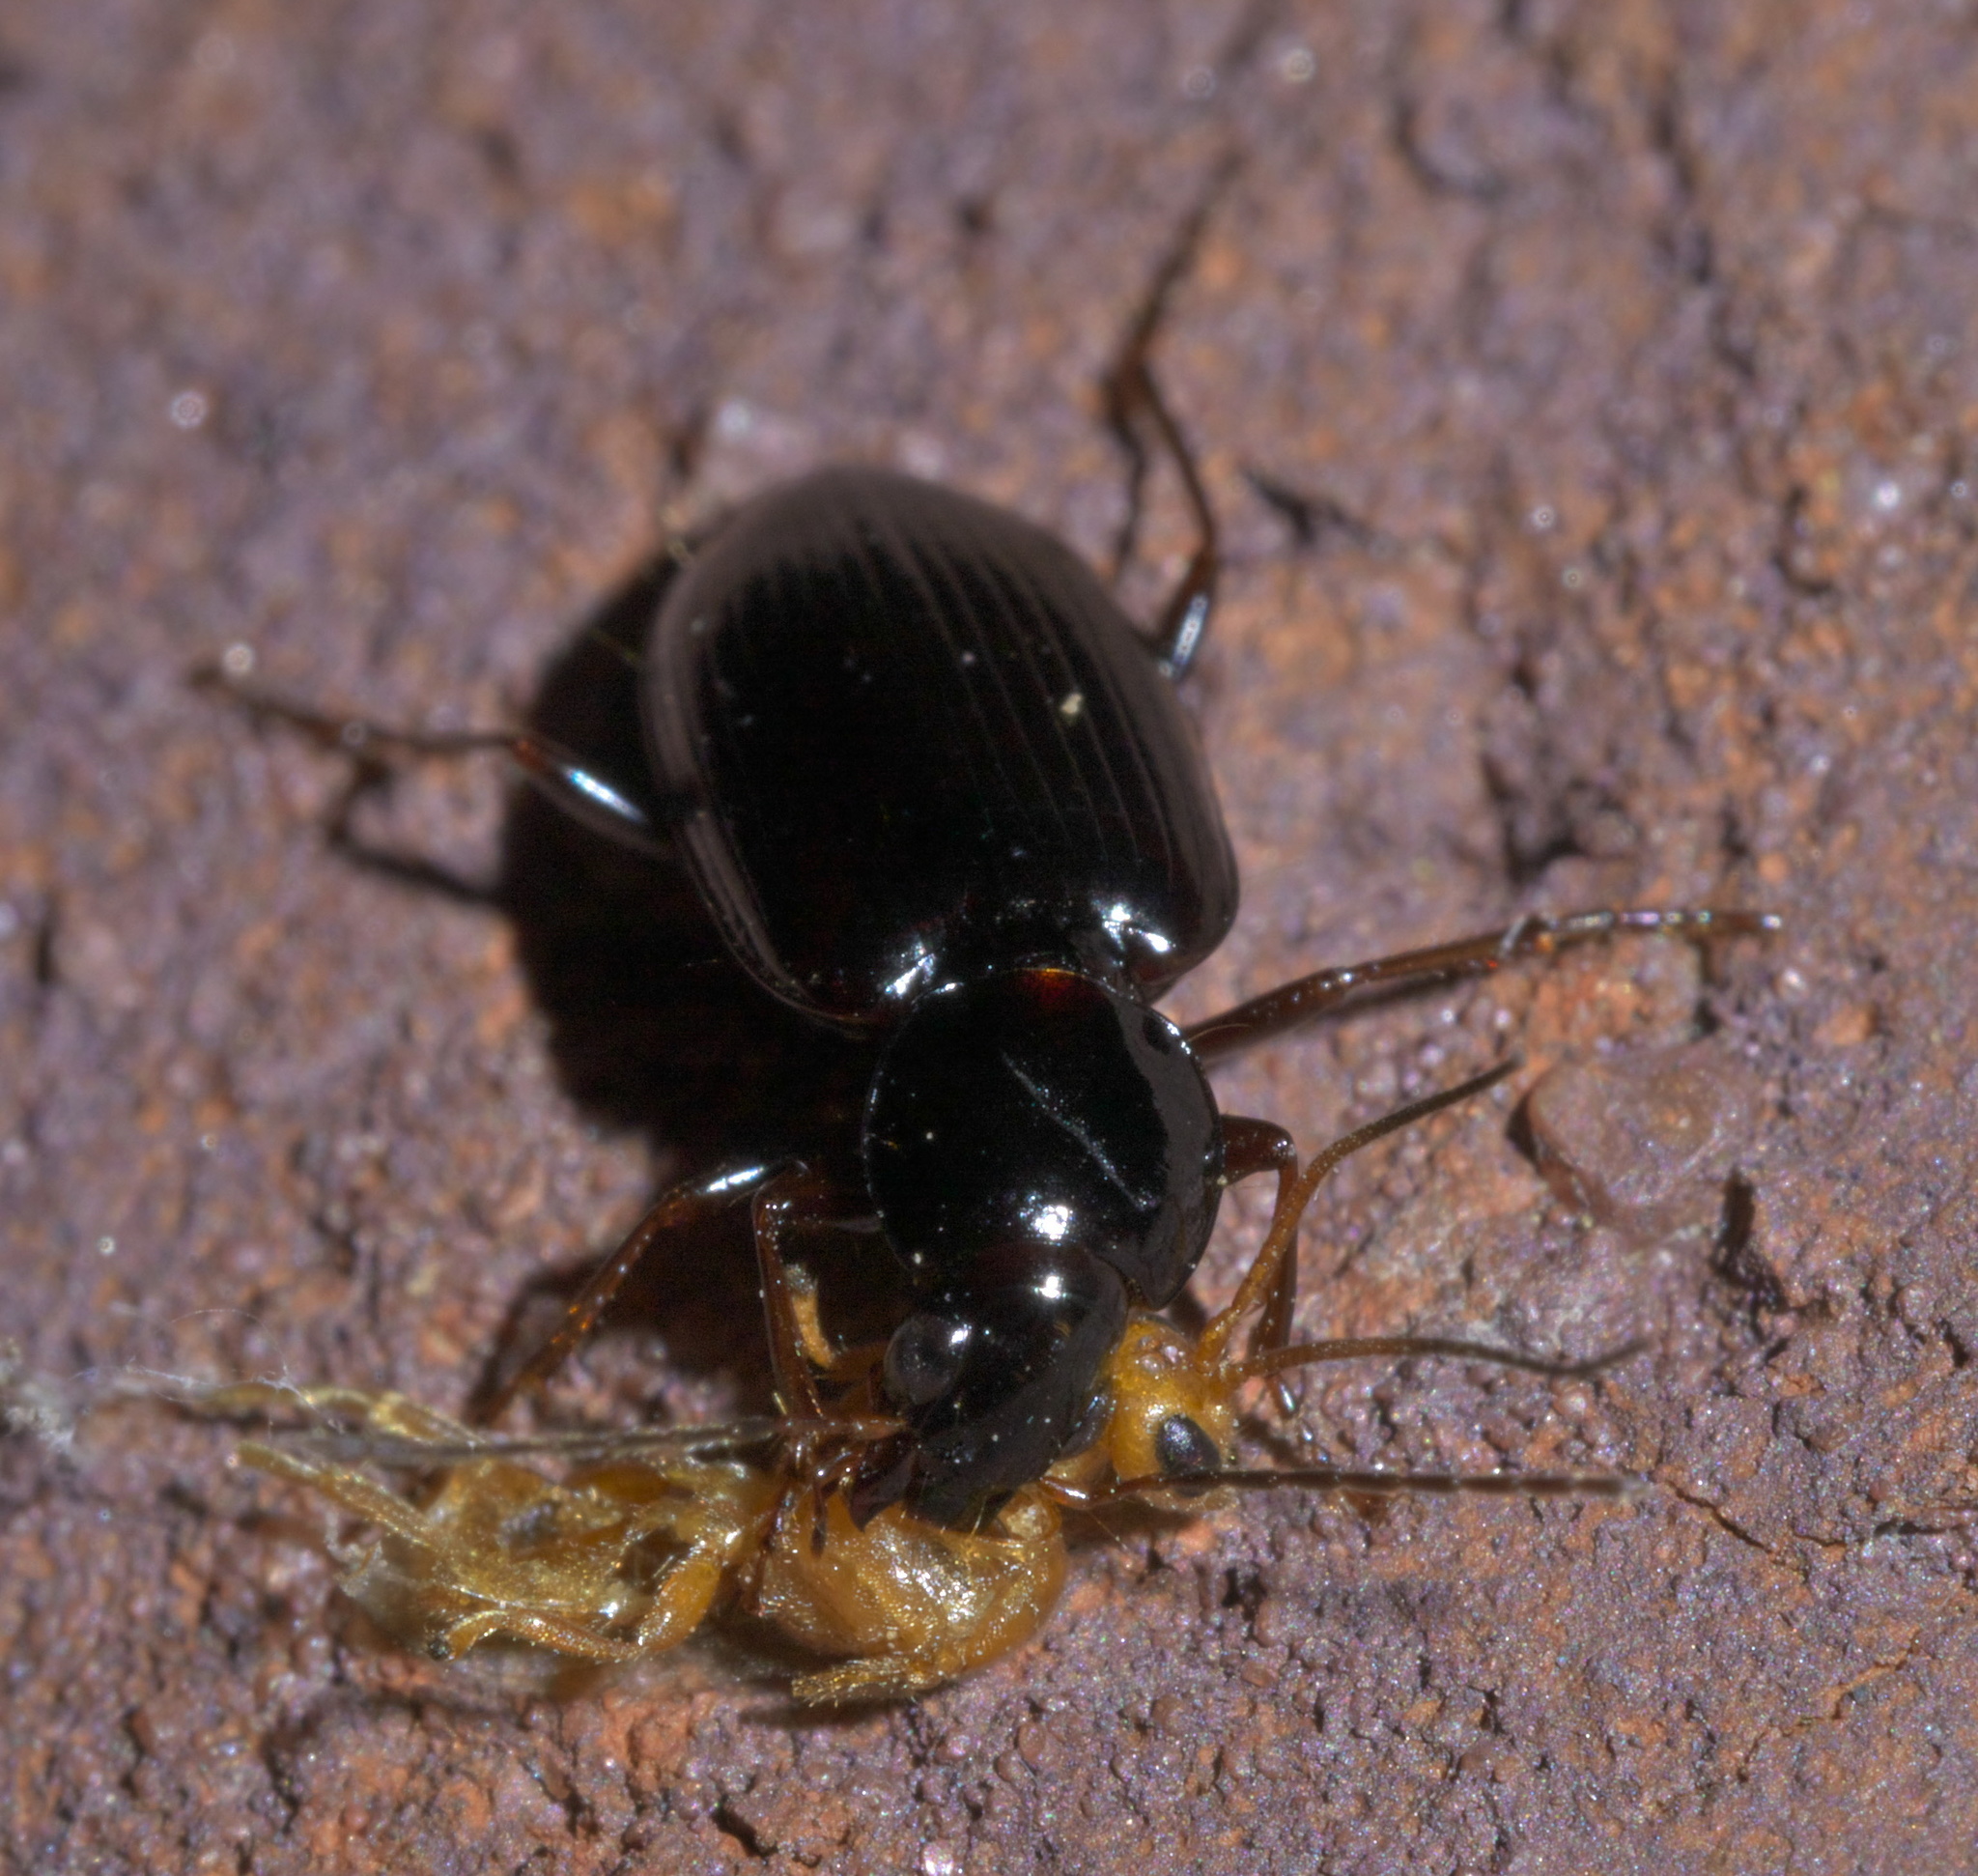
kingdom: Animalia
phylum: Arthropoda
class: Insecta
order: Coleoptera
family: Carabidae
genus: Agonum
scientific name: Agonum punctiforme
